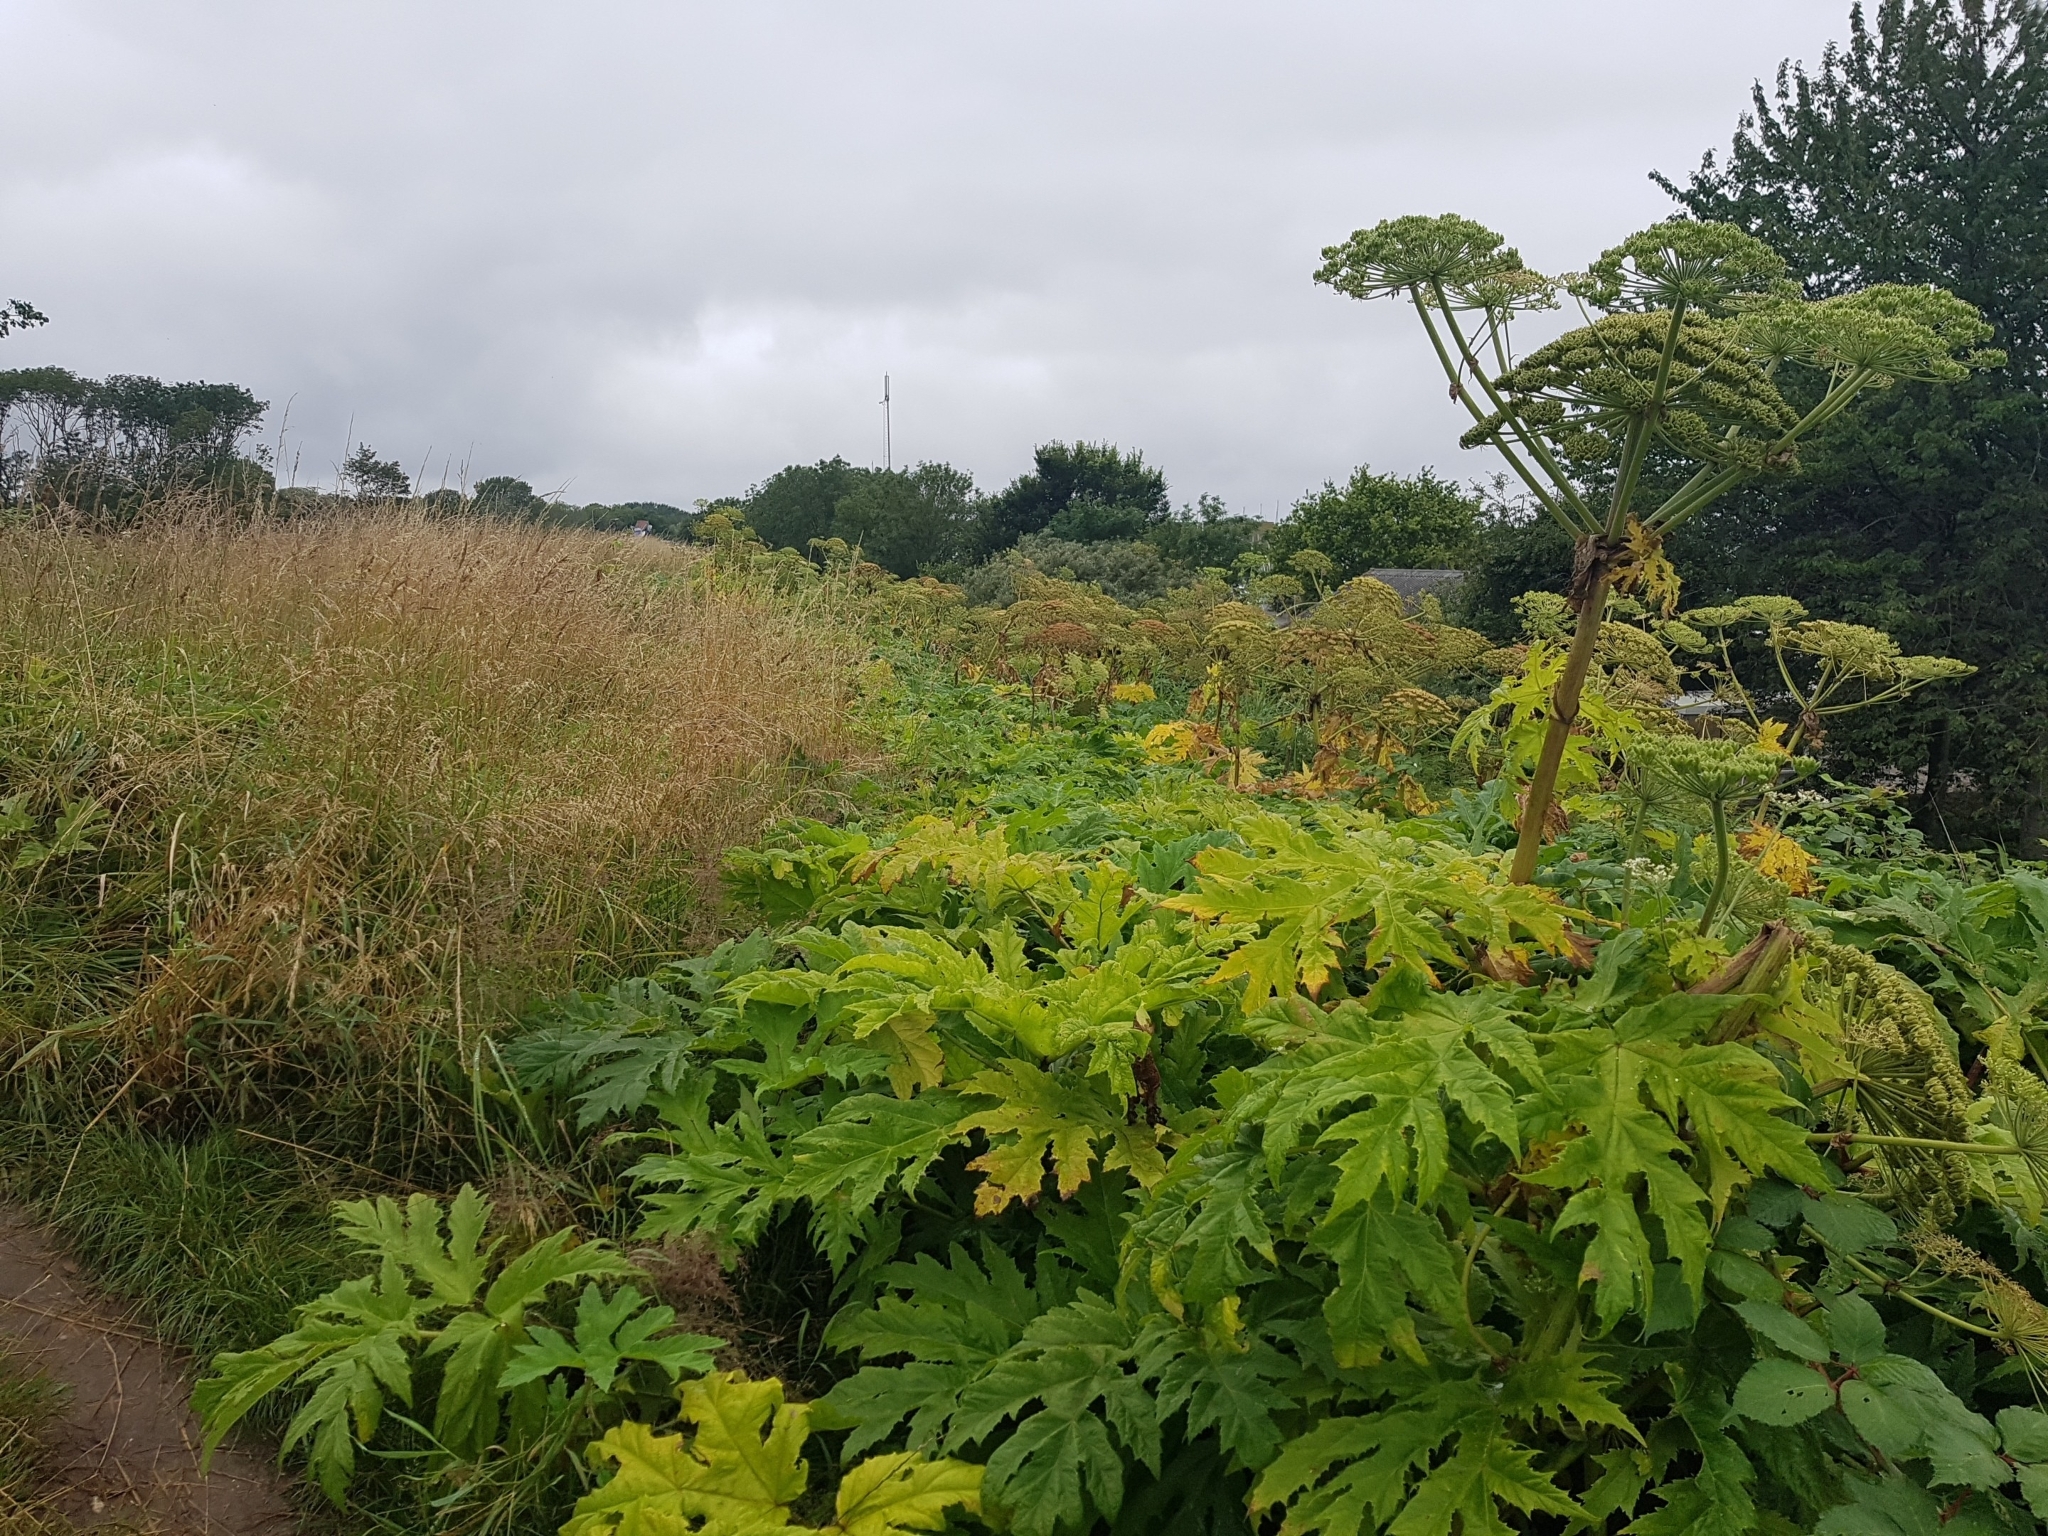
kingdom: Plantae
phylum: Tracheophyta
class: Magnoliopsida
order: Apiales
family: Apiaceae
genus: Heracleum
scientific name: Heracleum mantegazzianum
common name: Giant hogweed
